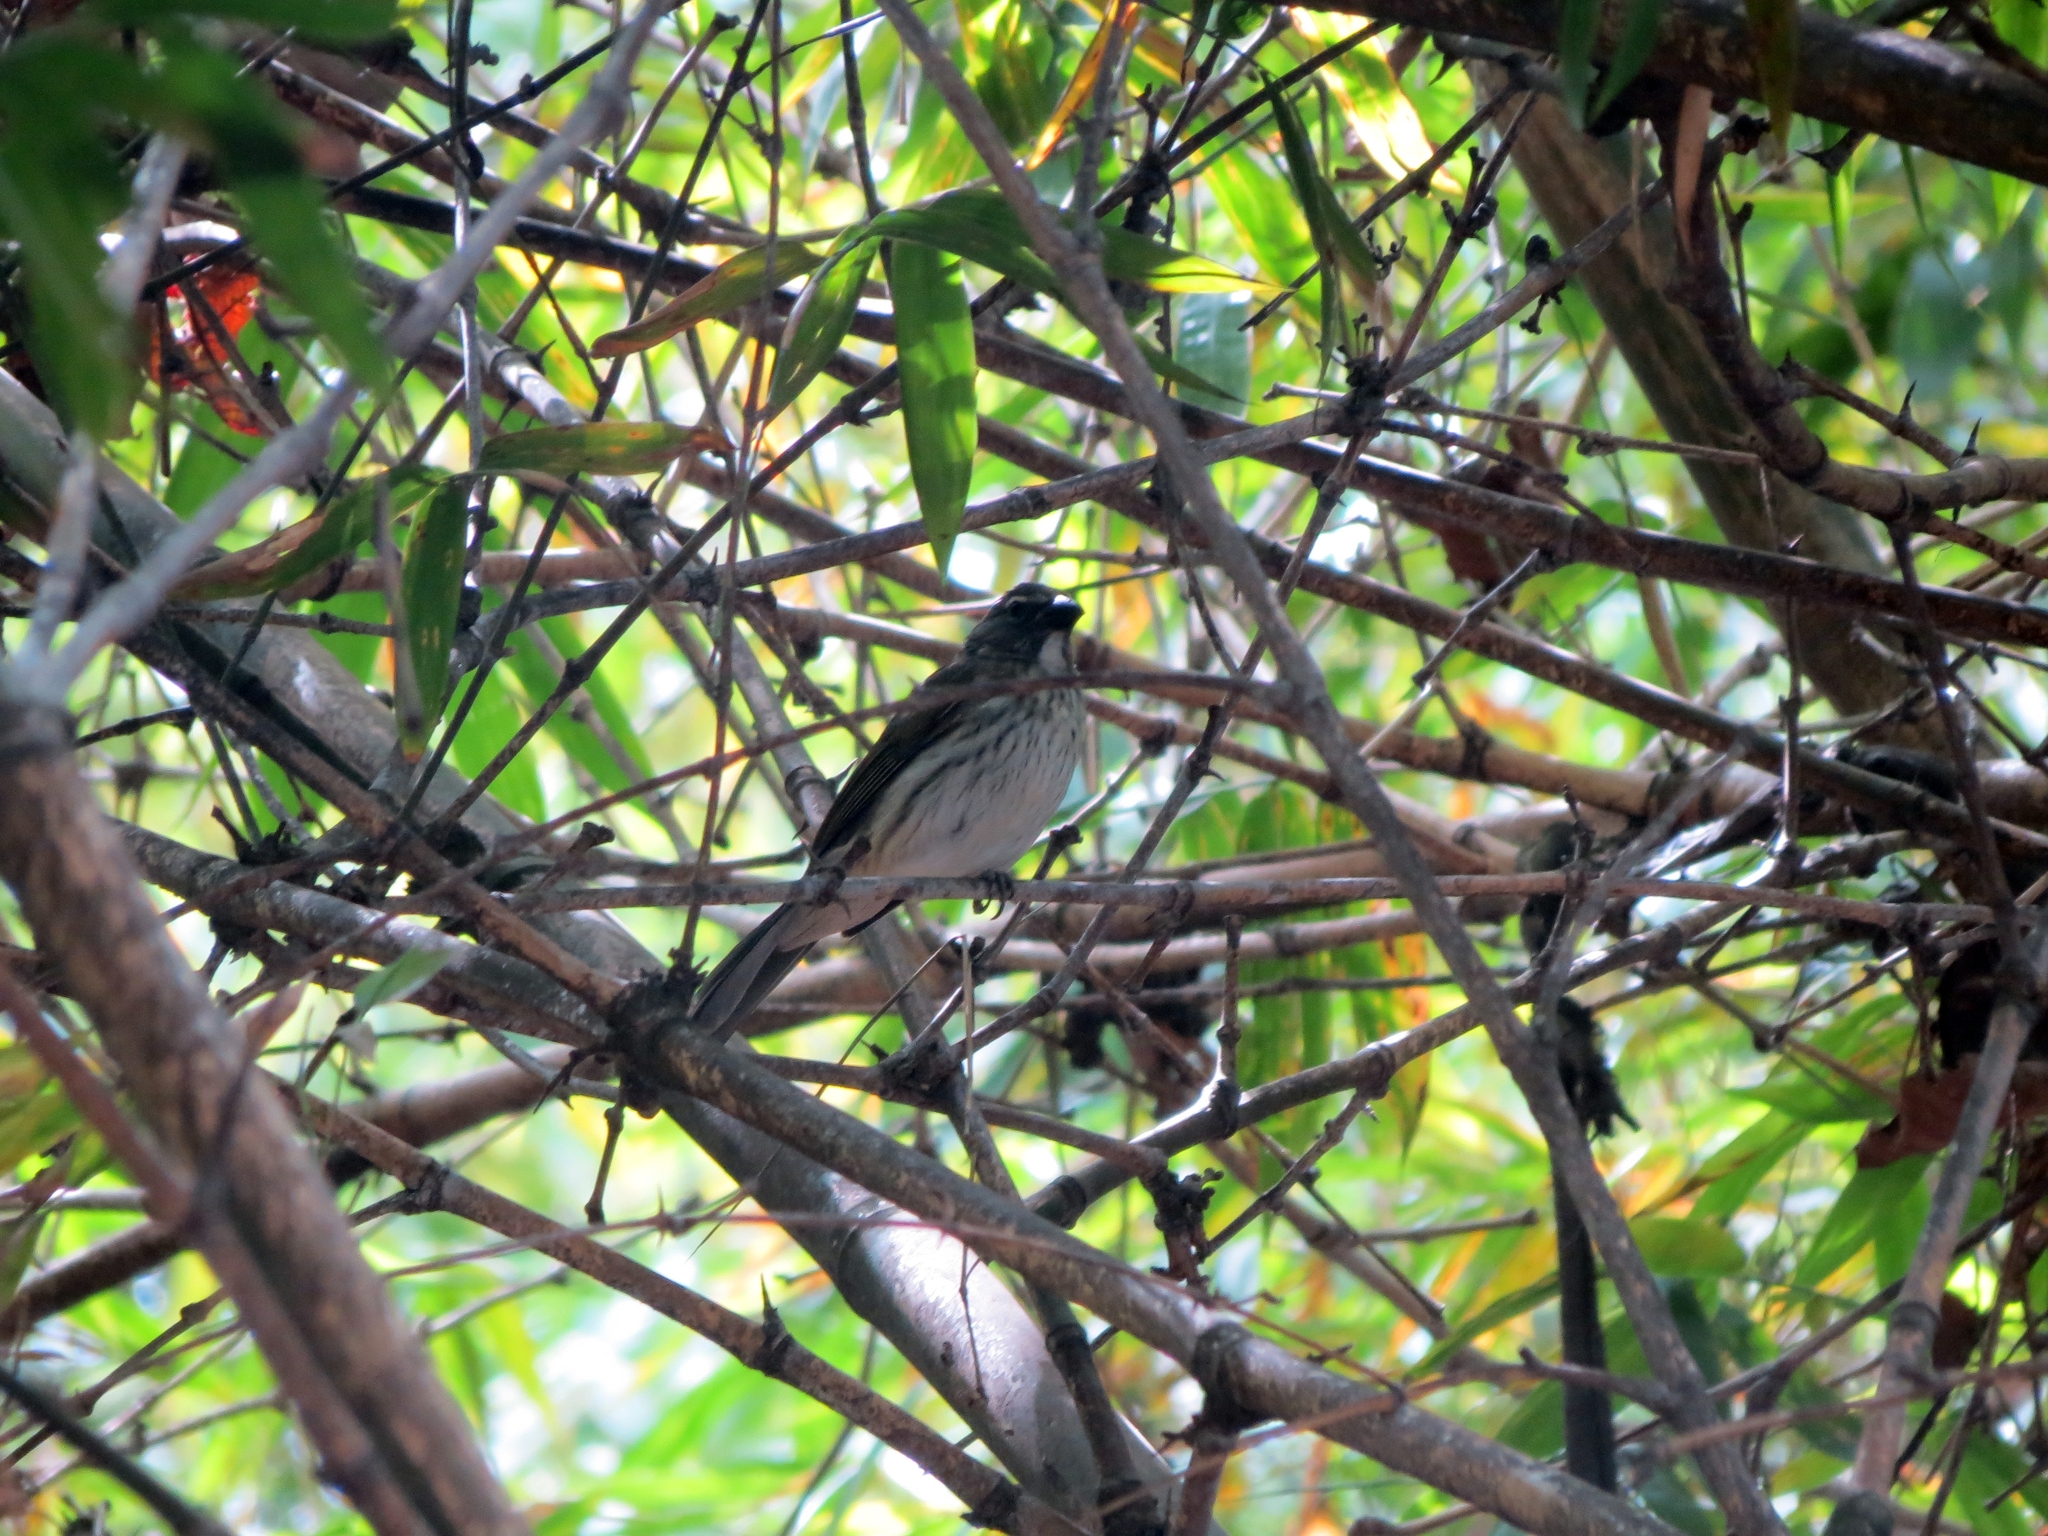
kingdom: Animalia
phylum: Chordata
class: Aves
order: Passeriformes
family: Thraupidae
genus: Saltator
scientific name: Saltator striatipectus
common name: Streaked saltator
